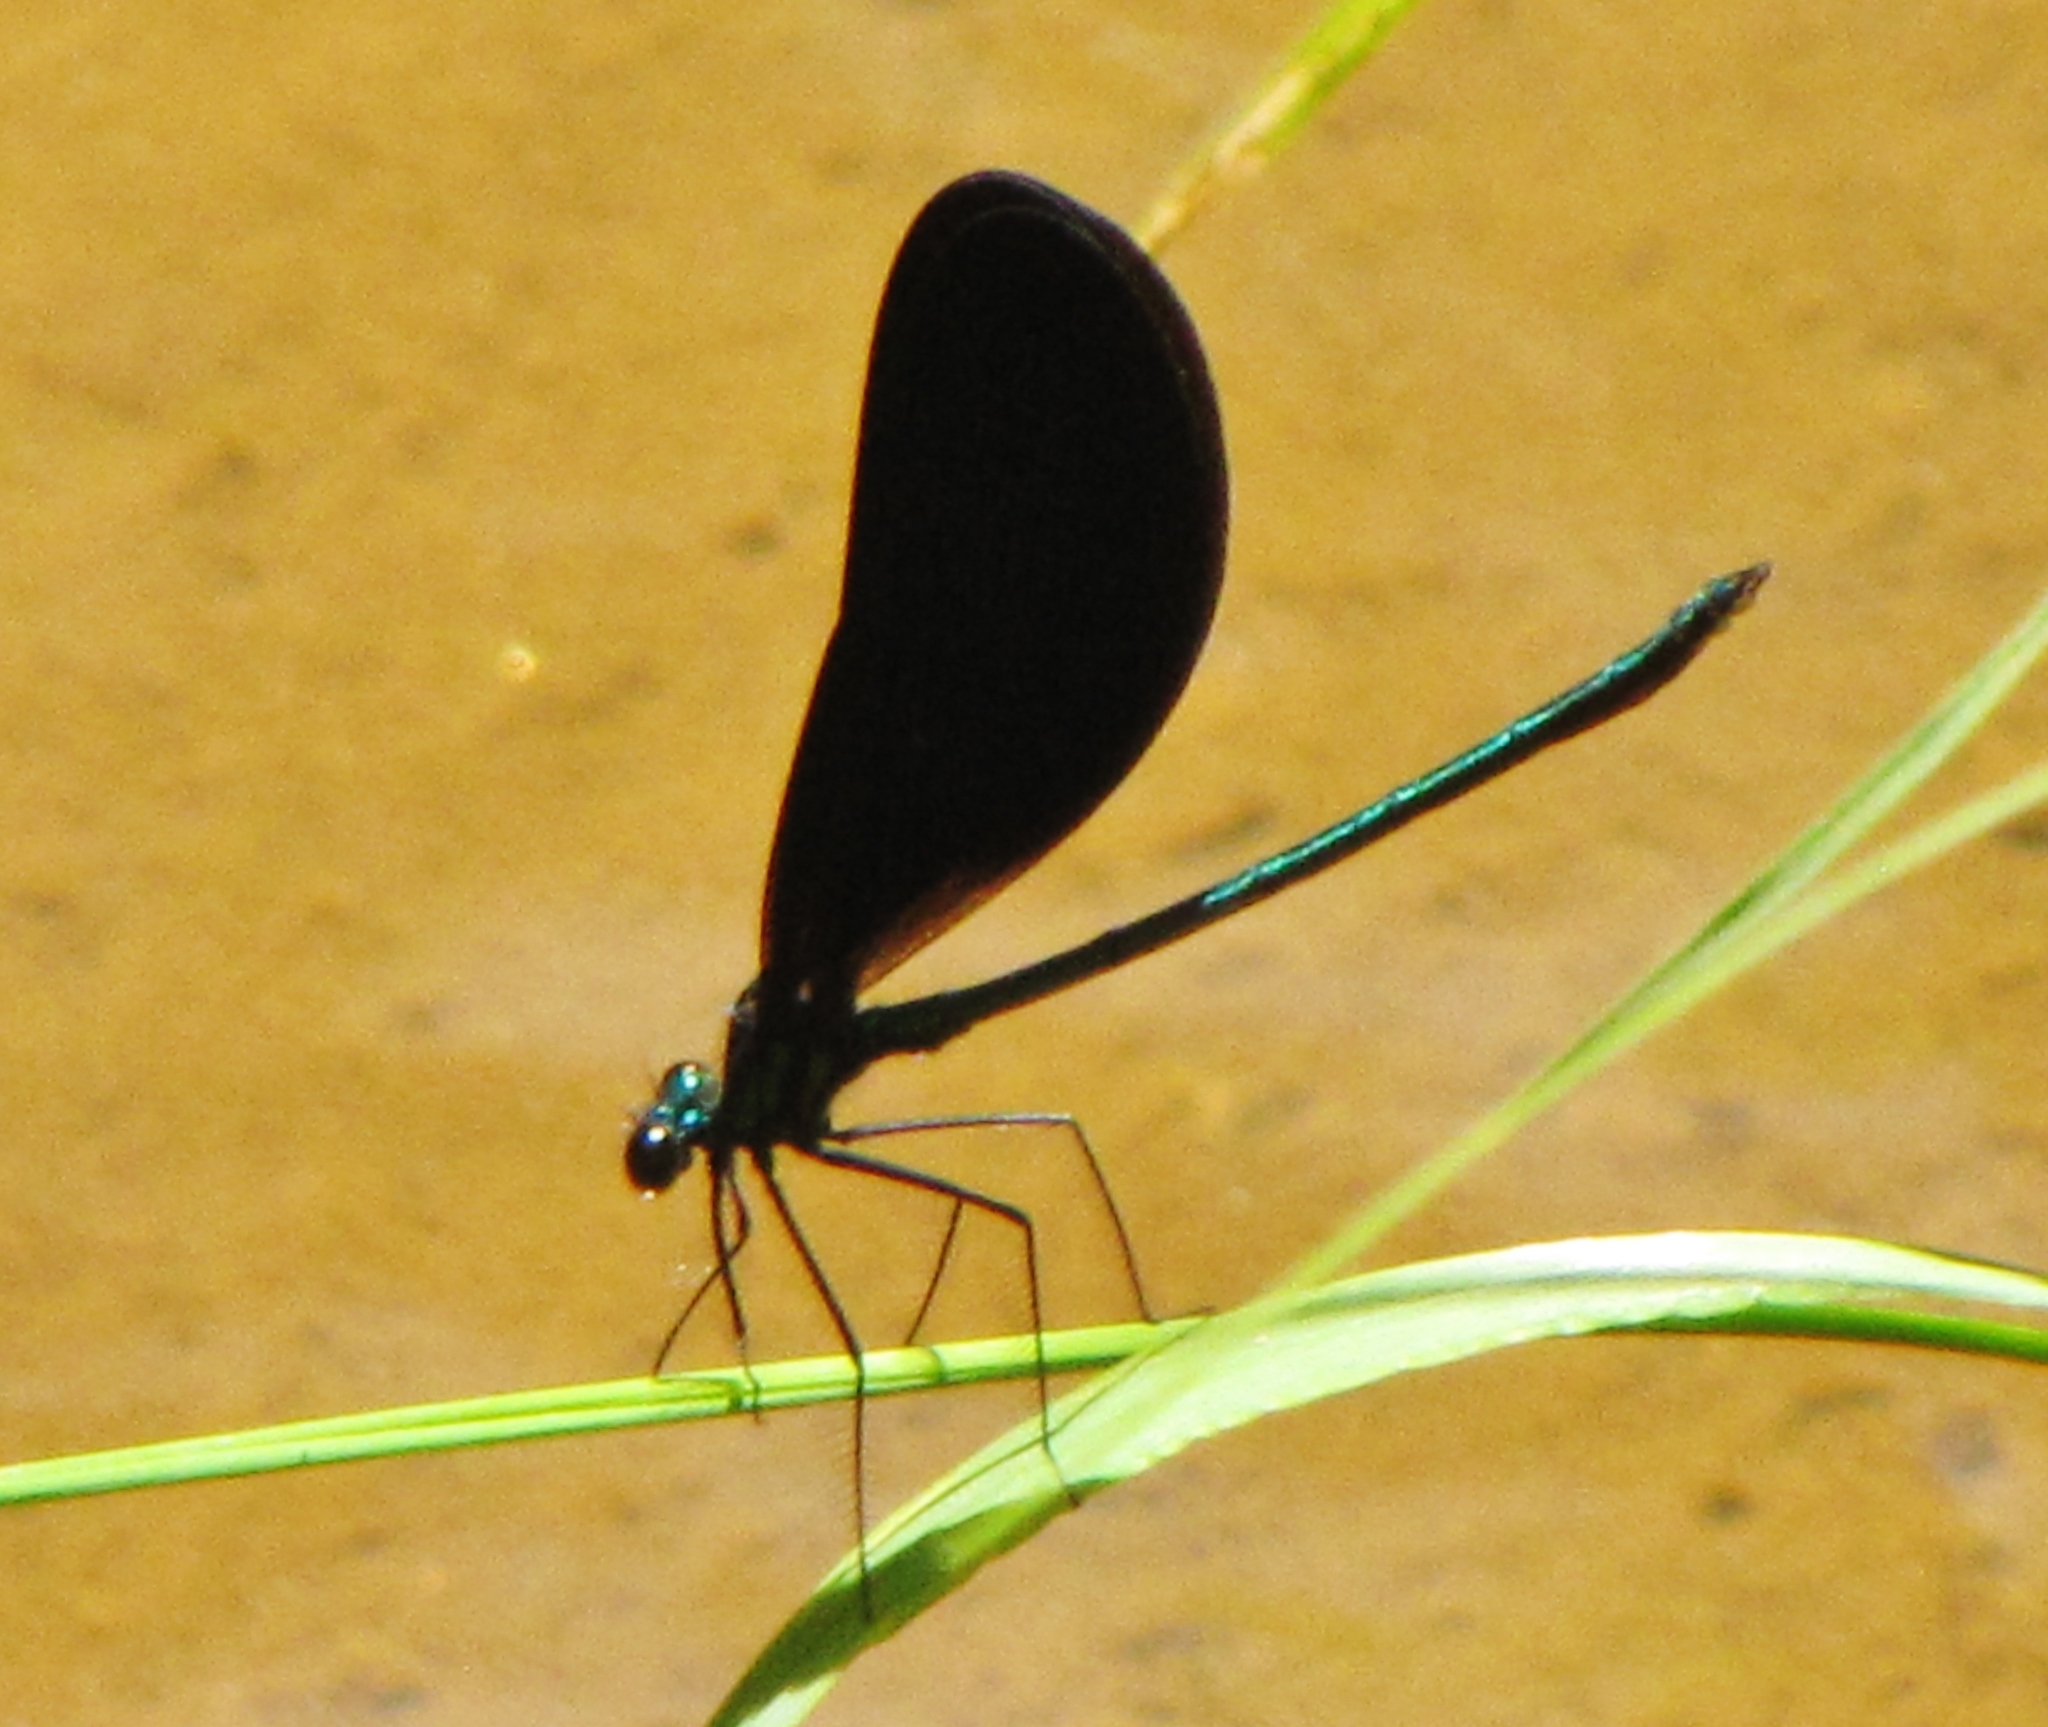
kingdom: Animalia
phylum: Arthropoda
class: Insecta
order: Odonata
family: Calopterygidae
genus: Calopteryx
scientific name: Calopteryx maculata
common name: Ebony jewelwing
